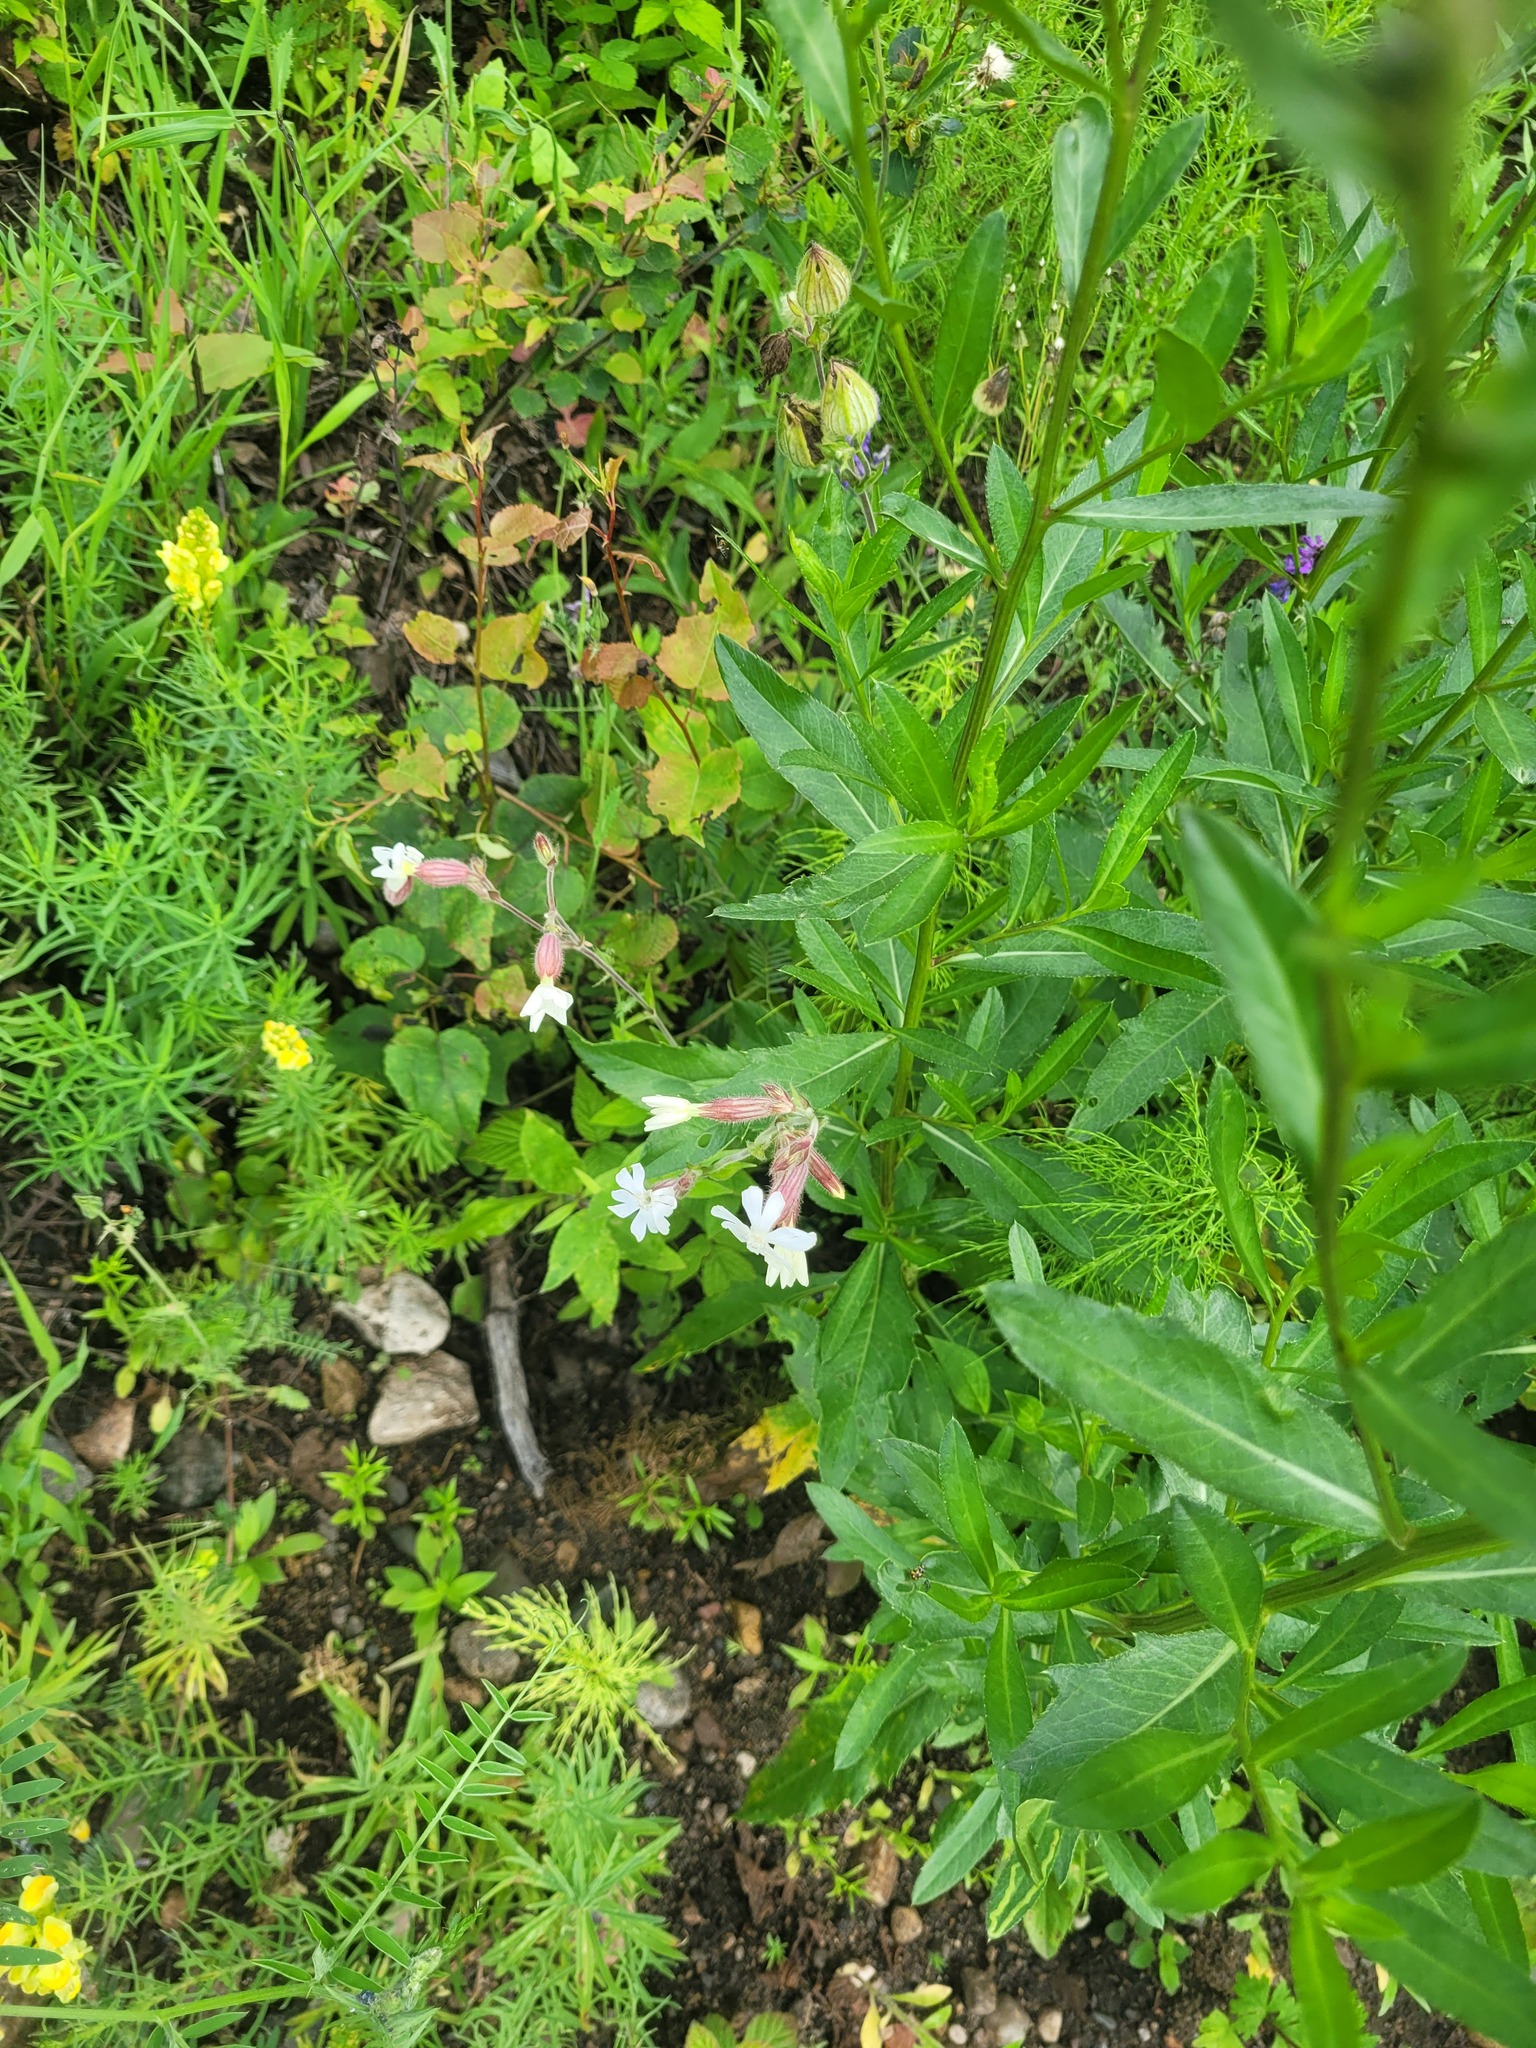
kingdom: Plantae
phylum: Tracheophyta
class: Magnoliopsida
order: Caryophyllales
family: Caryophyllaceae
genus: Silene
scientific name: Silene latifolia
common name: White campion
